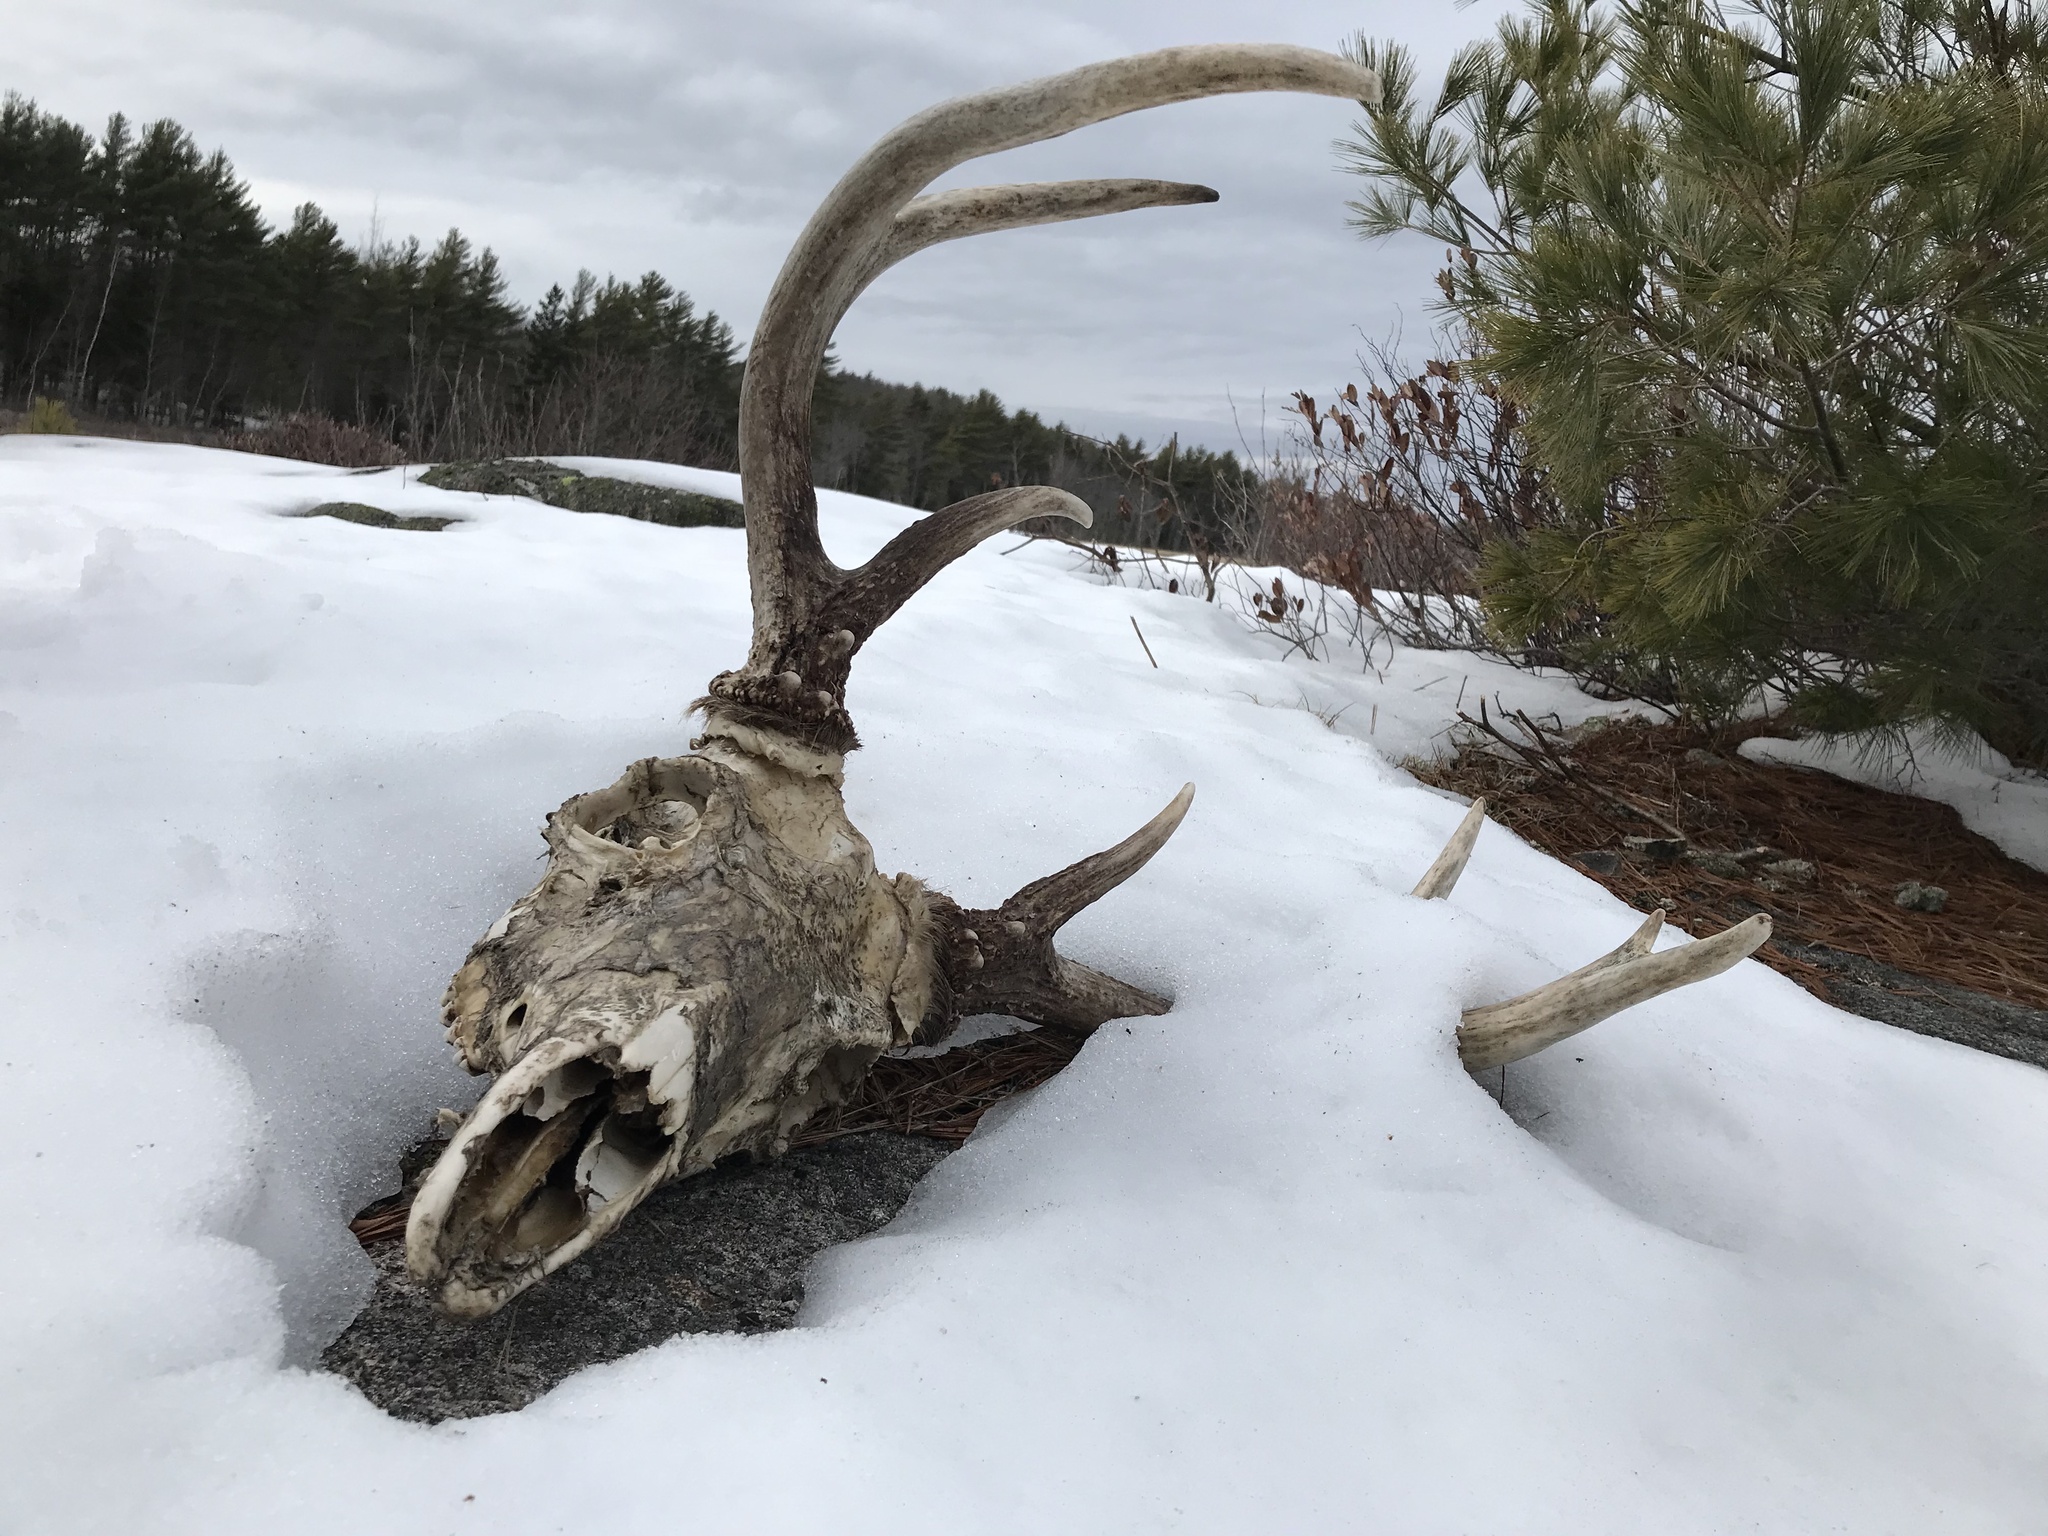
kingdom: Animalia
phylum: Chordata
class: Mammalia
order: Artiodactyla
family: Cervidae
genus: Odocoileus
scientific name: Odocoileus virginianus
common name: White-tailed deer
